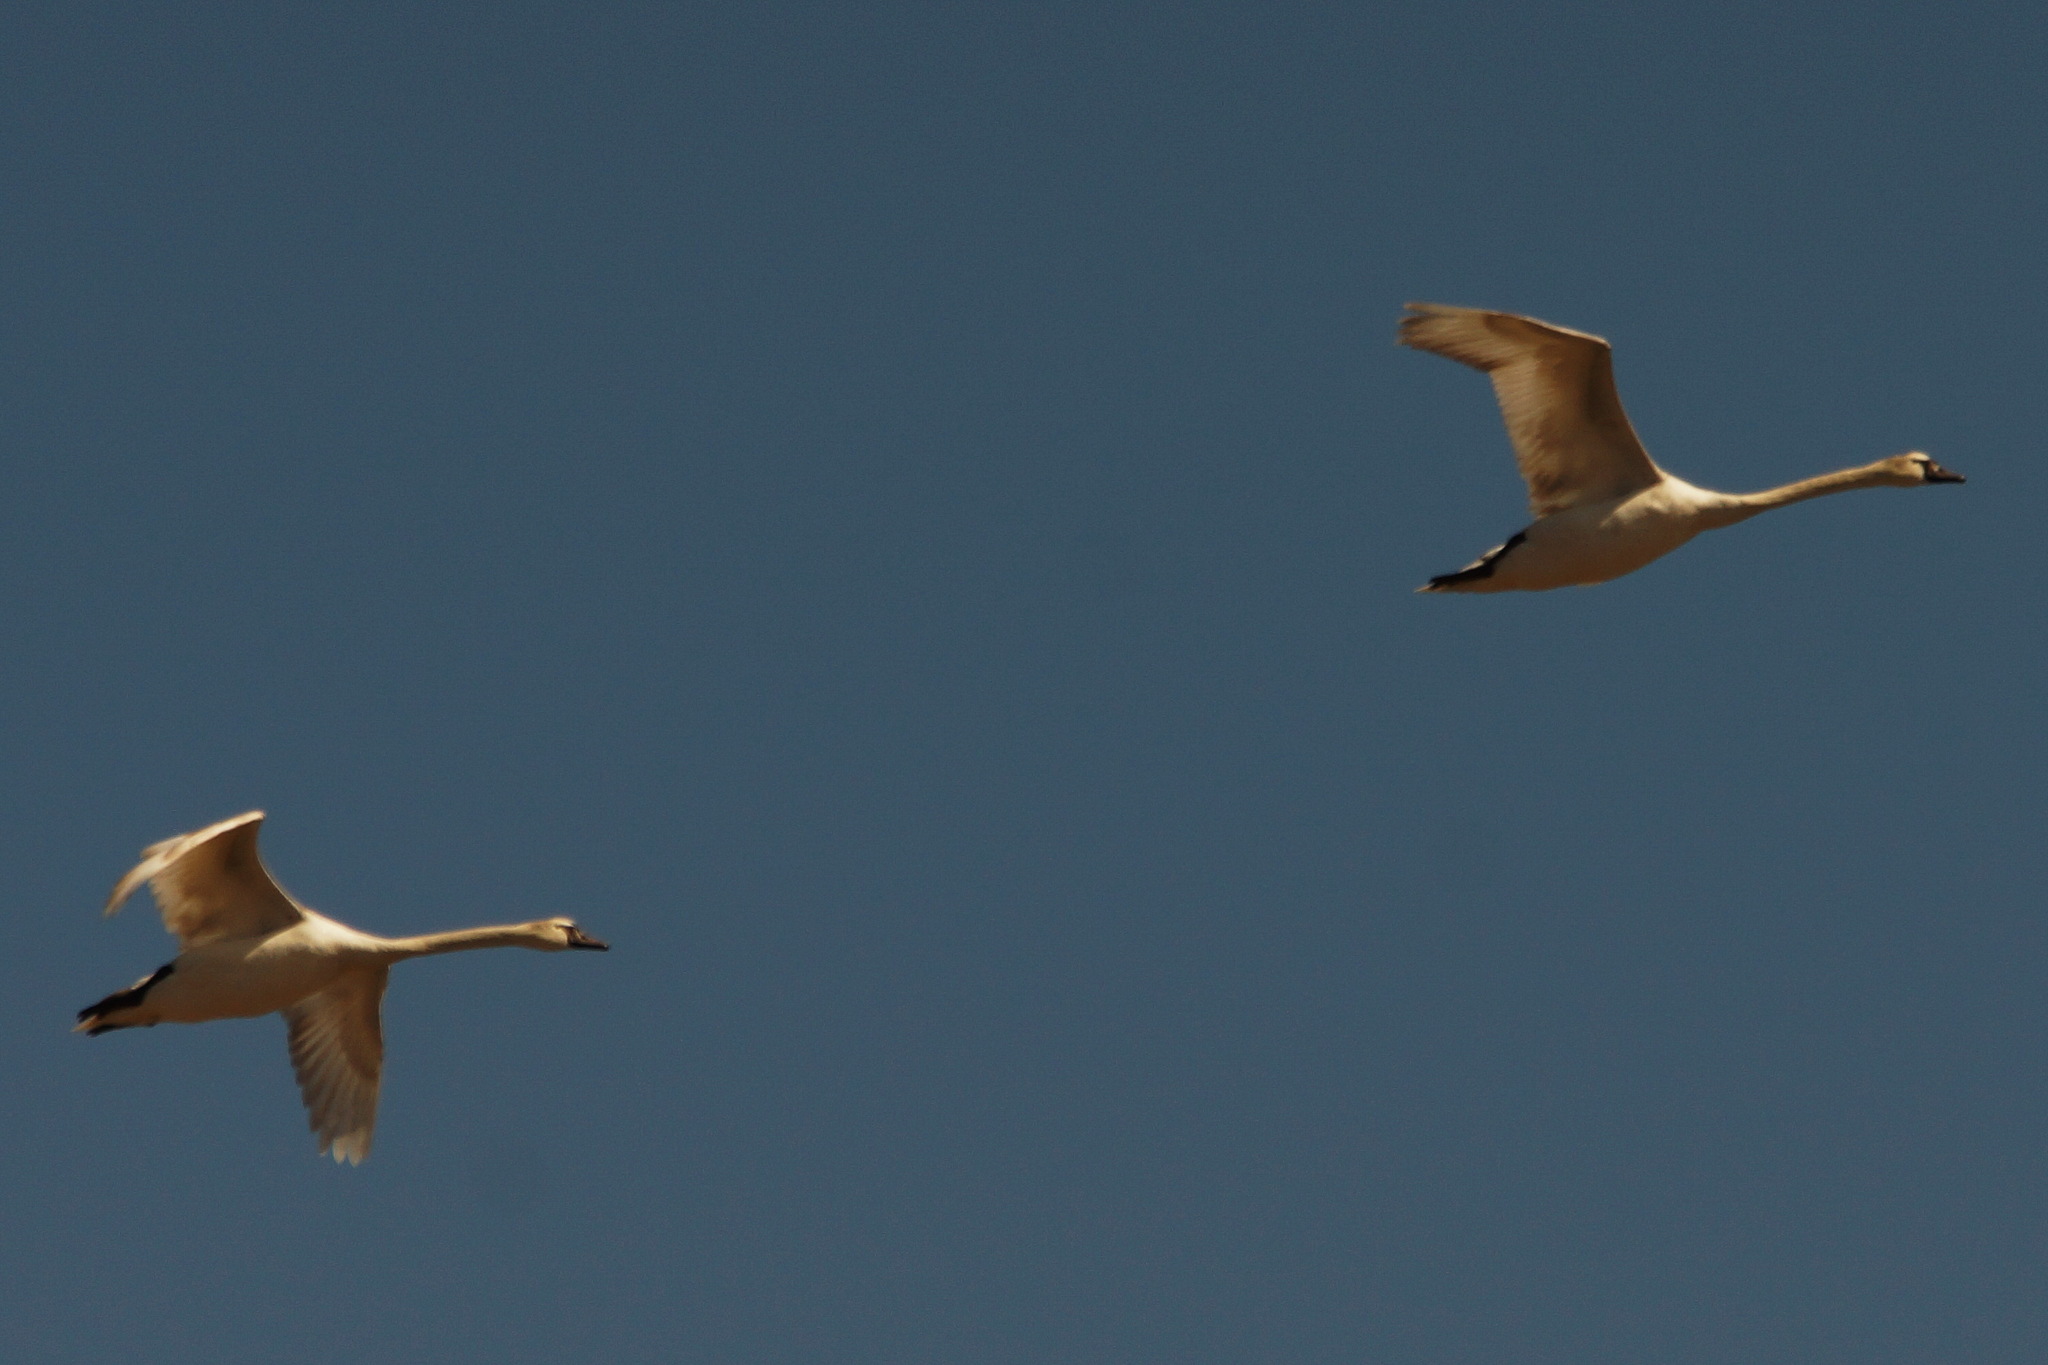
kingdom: Animalia
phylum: Chordata
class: Aves
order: Anseriformes
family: Anatidae
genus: Cygnus
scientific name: Cygnus olor
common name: Mute swan
